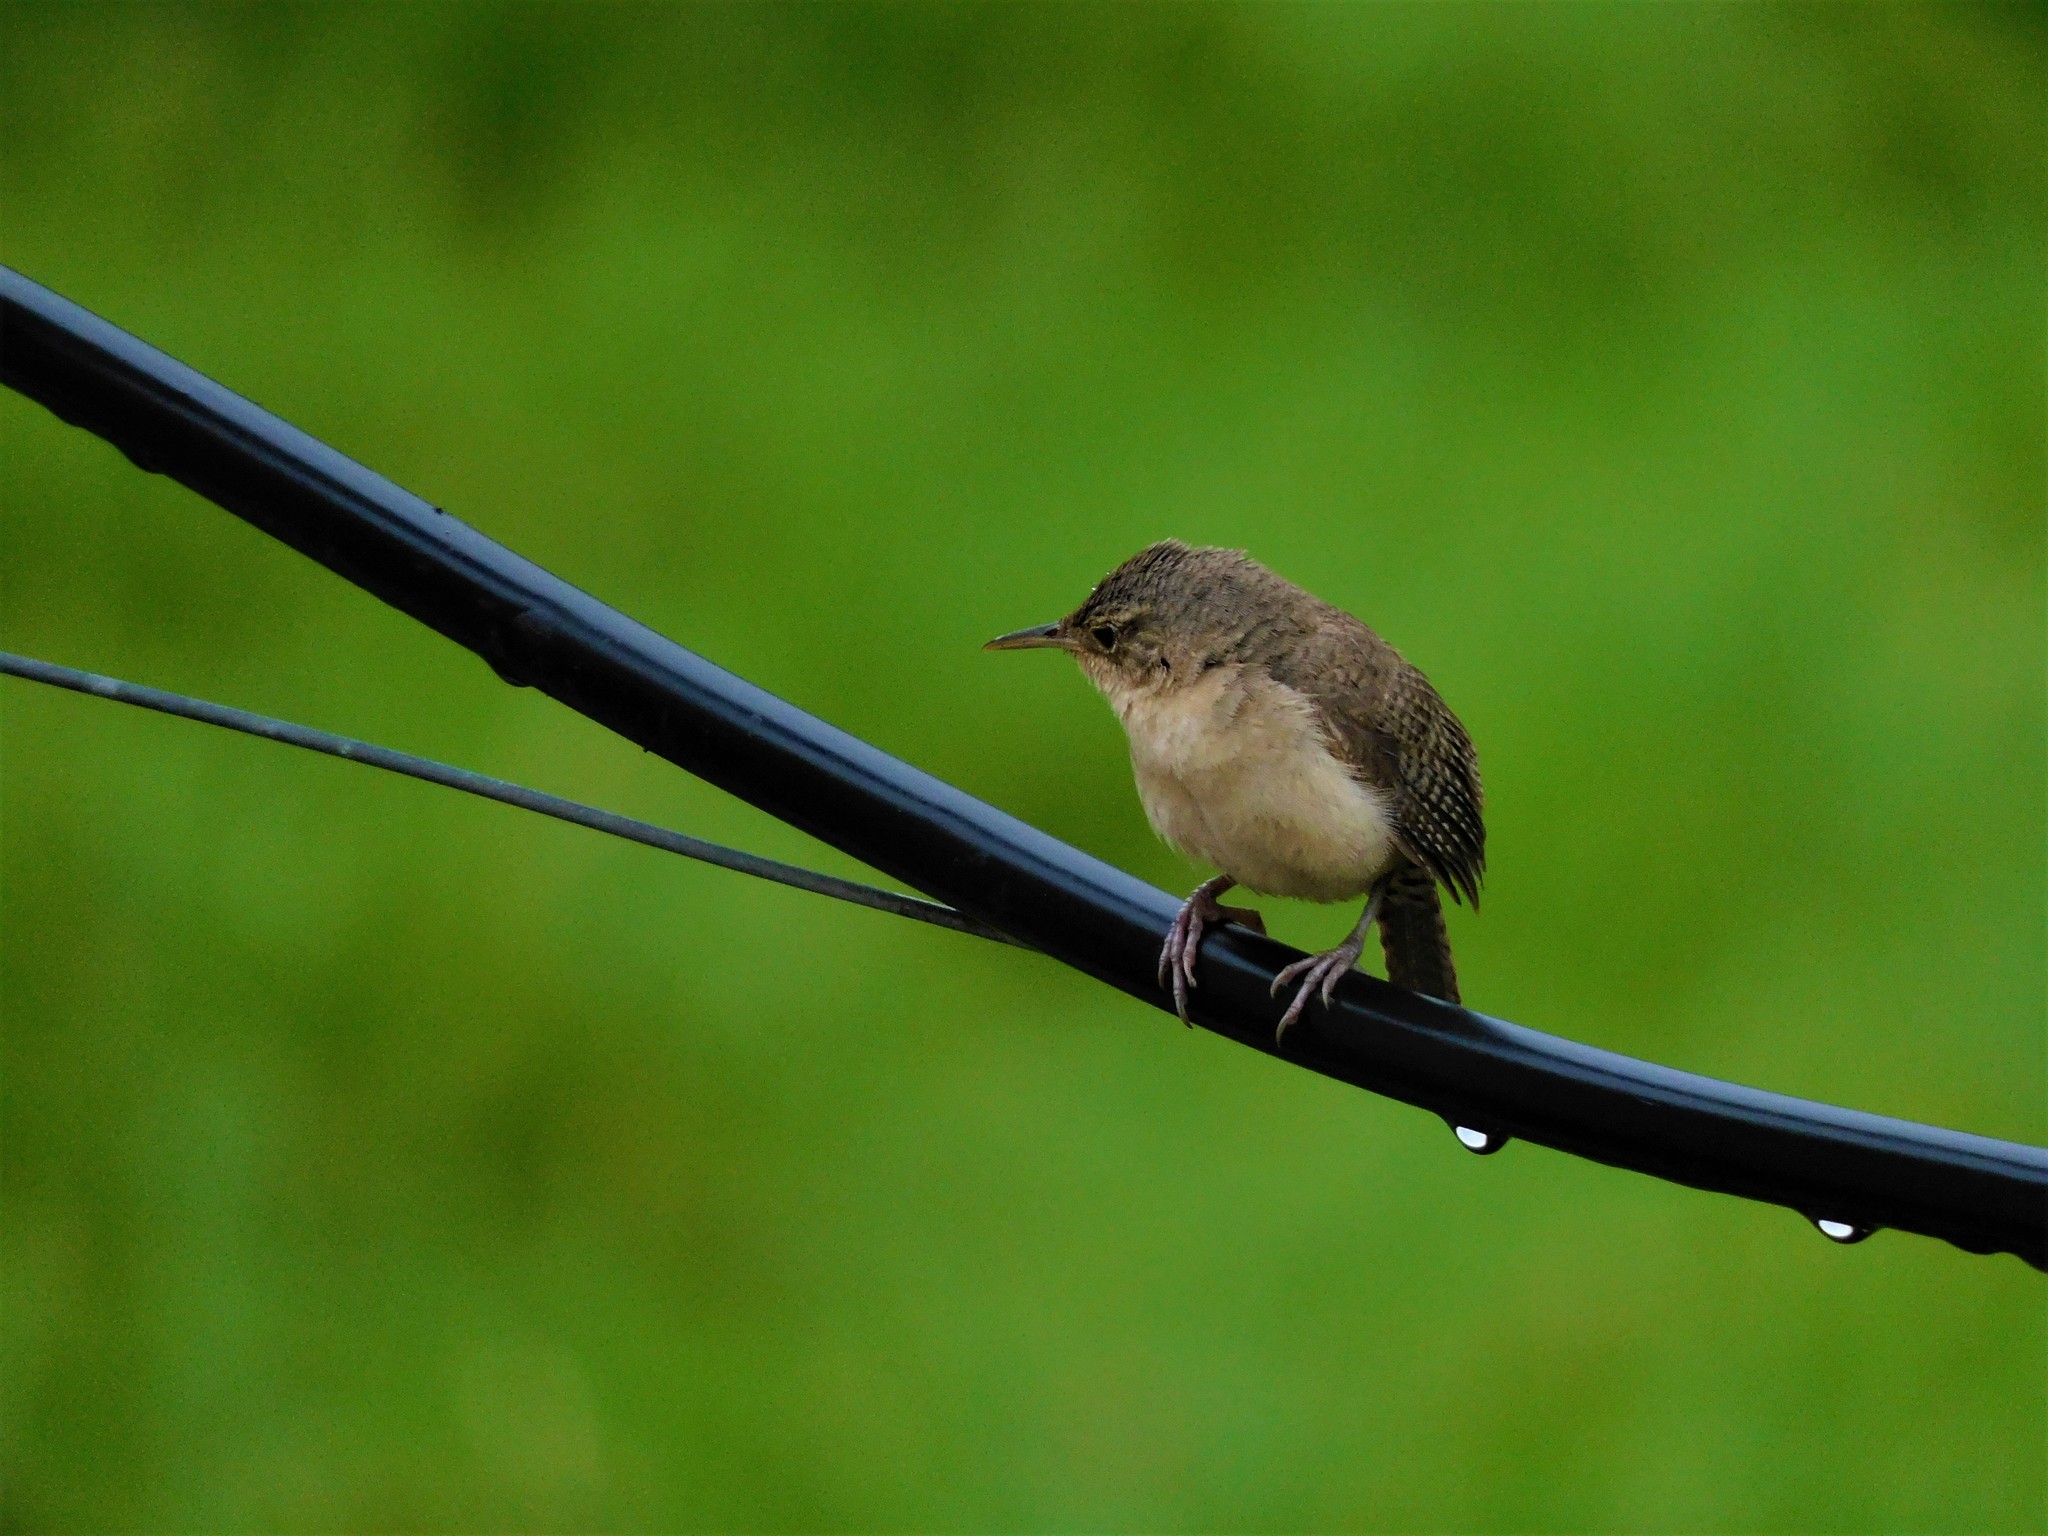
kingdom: Animalia
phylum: Chordata
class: Aves
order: Passeriformes
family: Troglodytidae
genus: Troglodytes
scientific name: Troglodytes aedon
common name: House wren
